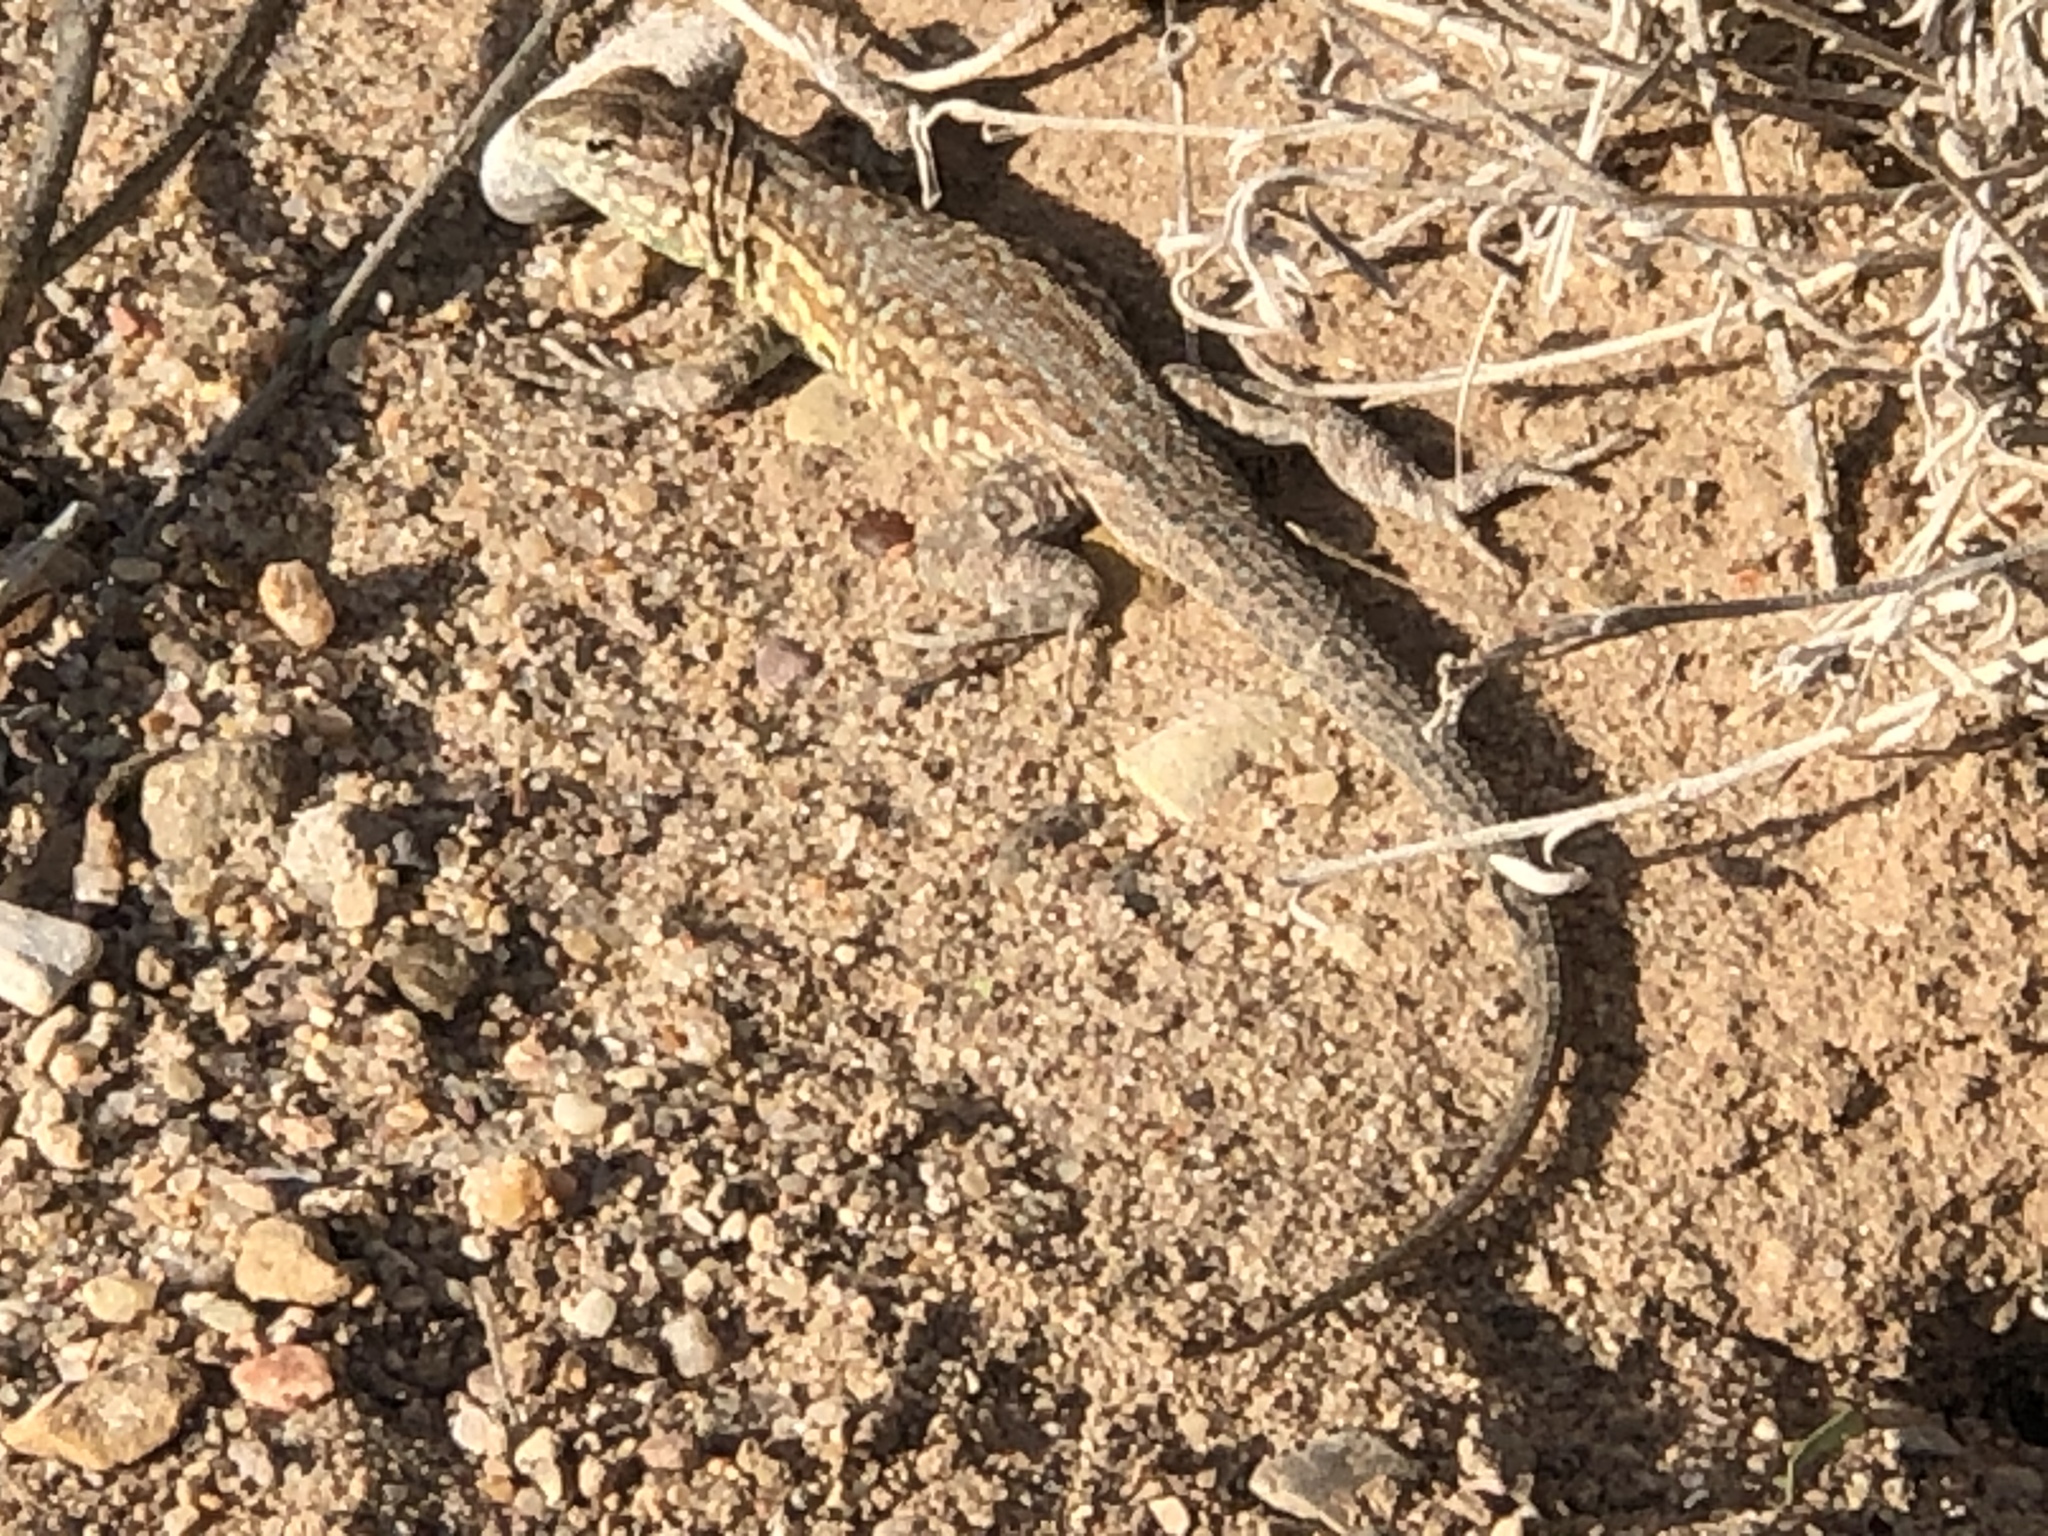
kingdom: Animalia
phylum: Chordata
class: Squamata
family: Phrynosomatidae
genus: Uta
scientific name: Uta stansburiana
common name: Side-blotched lizard
